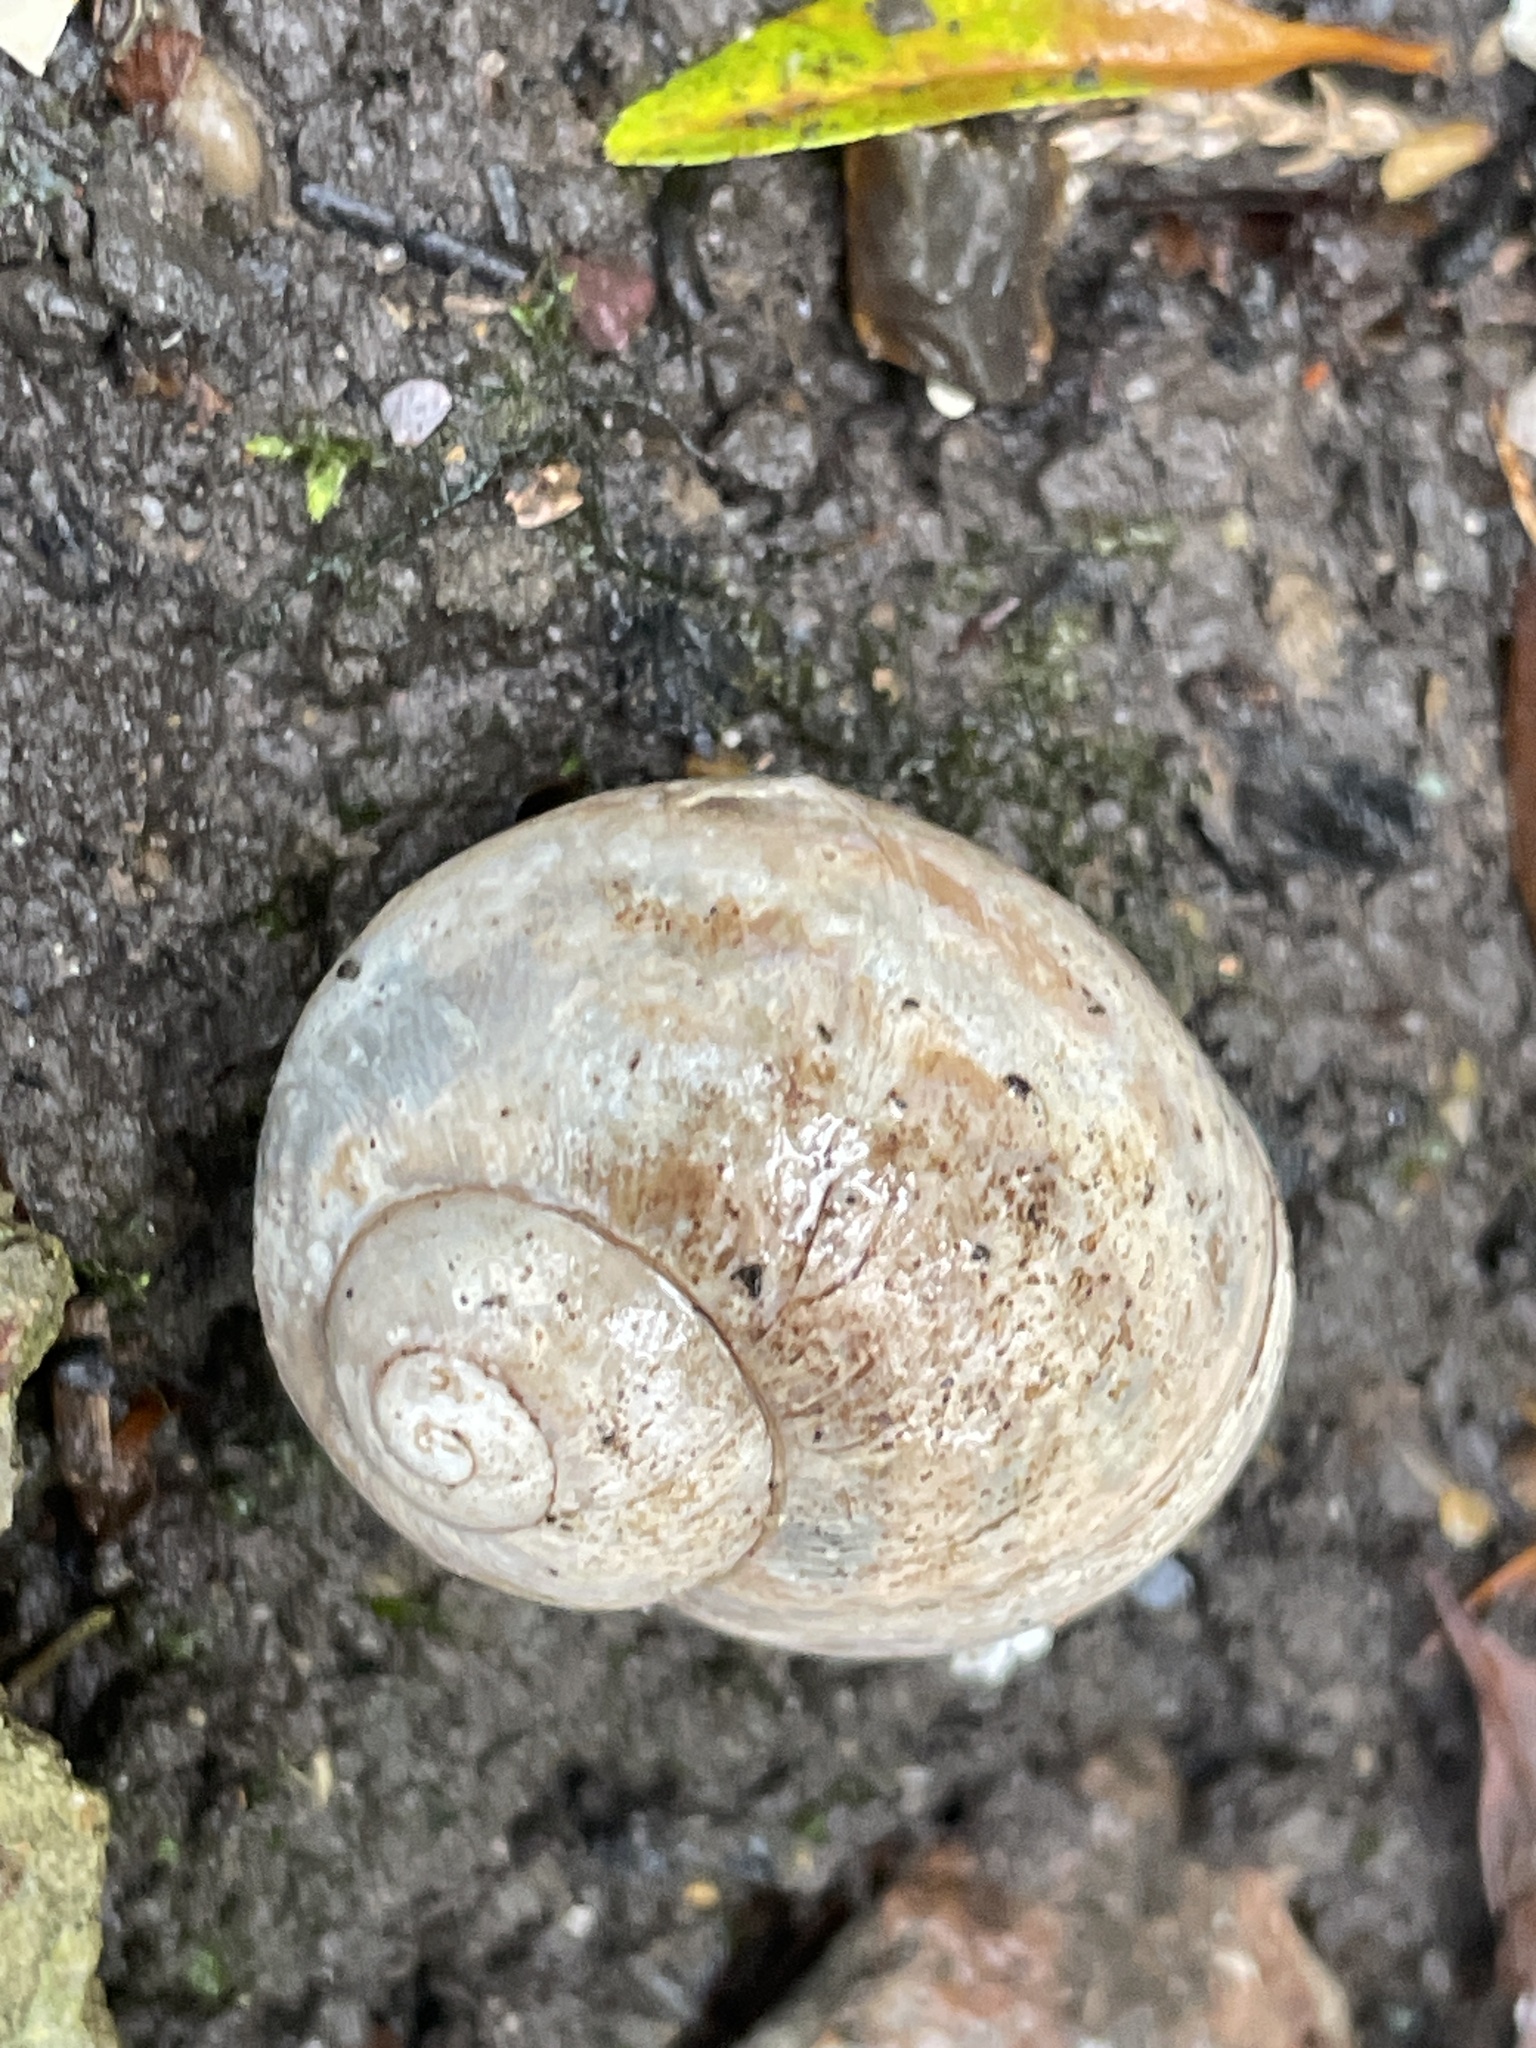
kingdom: Animalia
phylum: Mollusca
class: Gastropoda
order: Stylommatophora
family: Helicidae
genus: Cornu
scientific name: Cornu aspersum
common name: Brown garden snail
